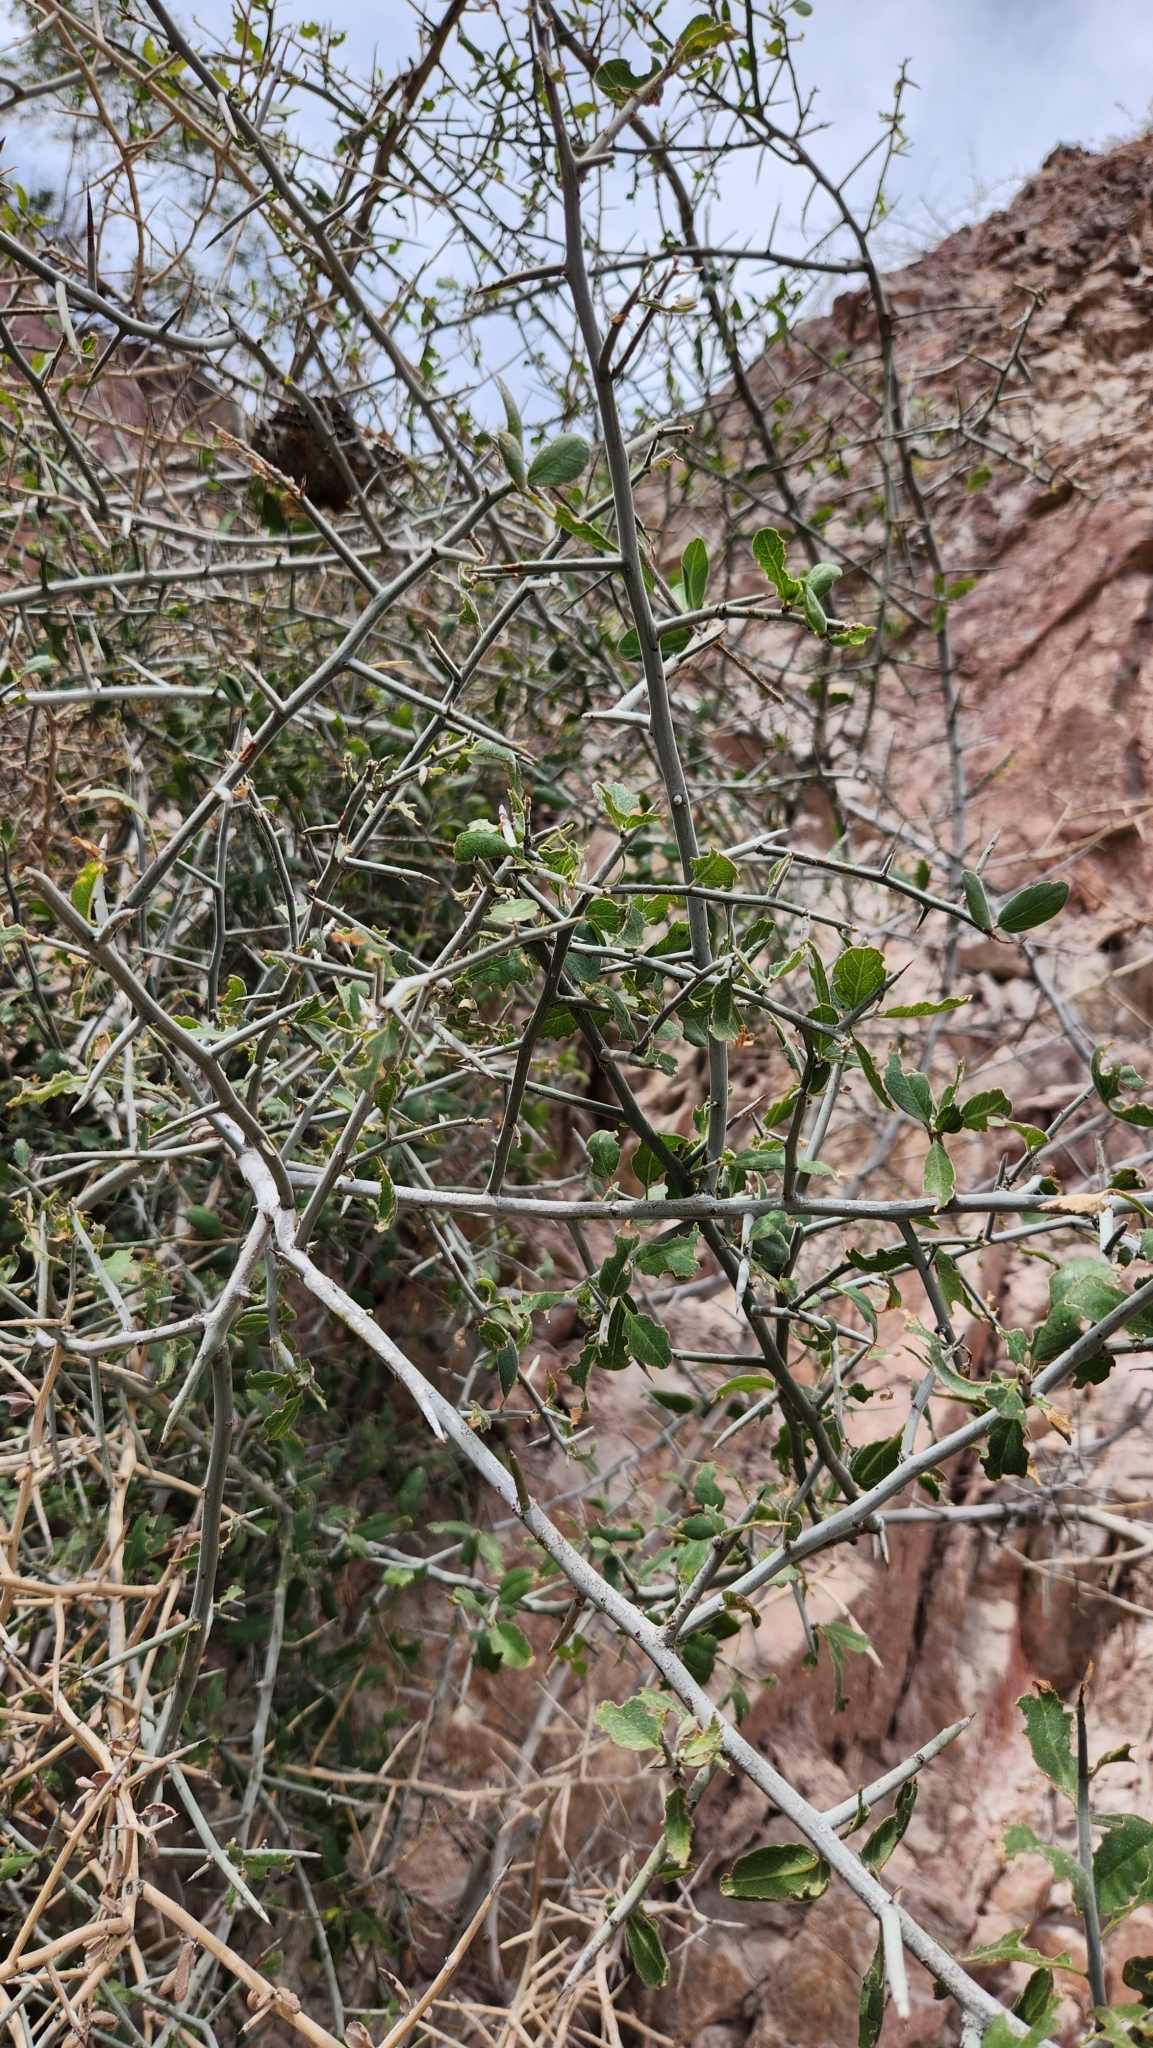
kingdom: Plantae
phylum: Tracheophyta
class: Magnoliopsida
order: Rosales
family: Rhamnaceae
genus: Sarcomphalus
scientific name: Sarcomphalus obtusifolius
